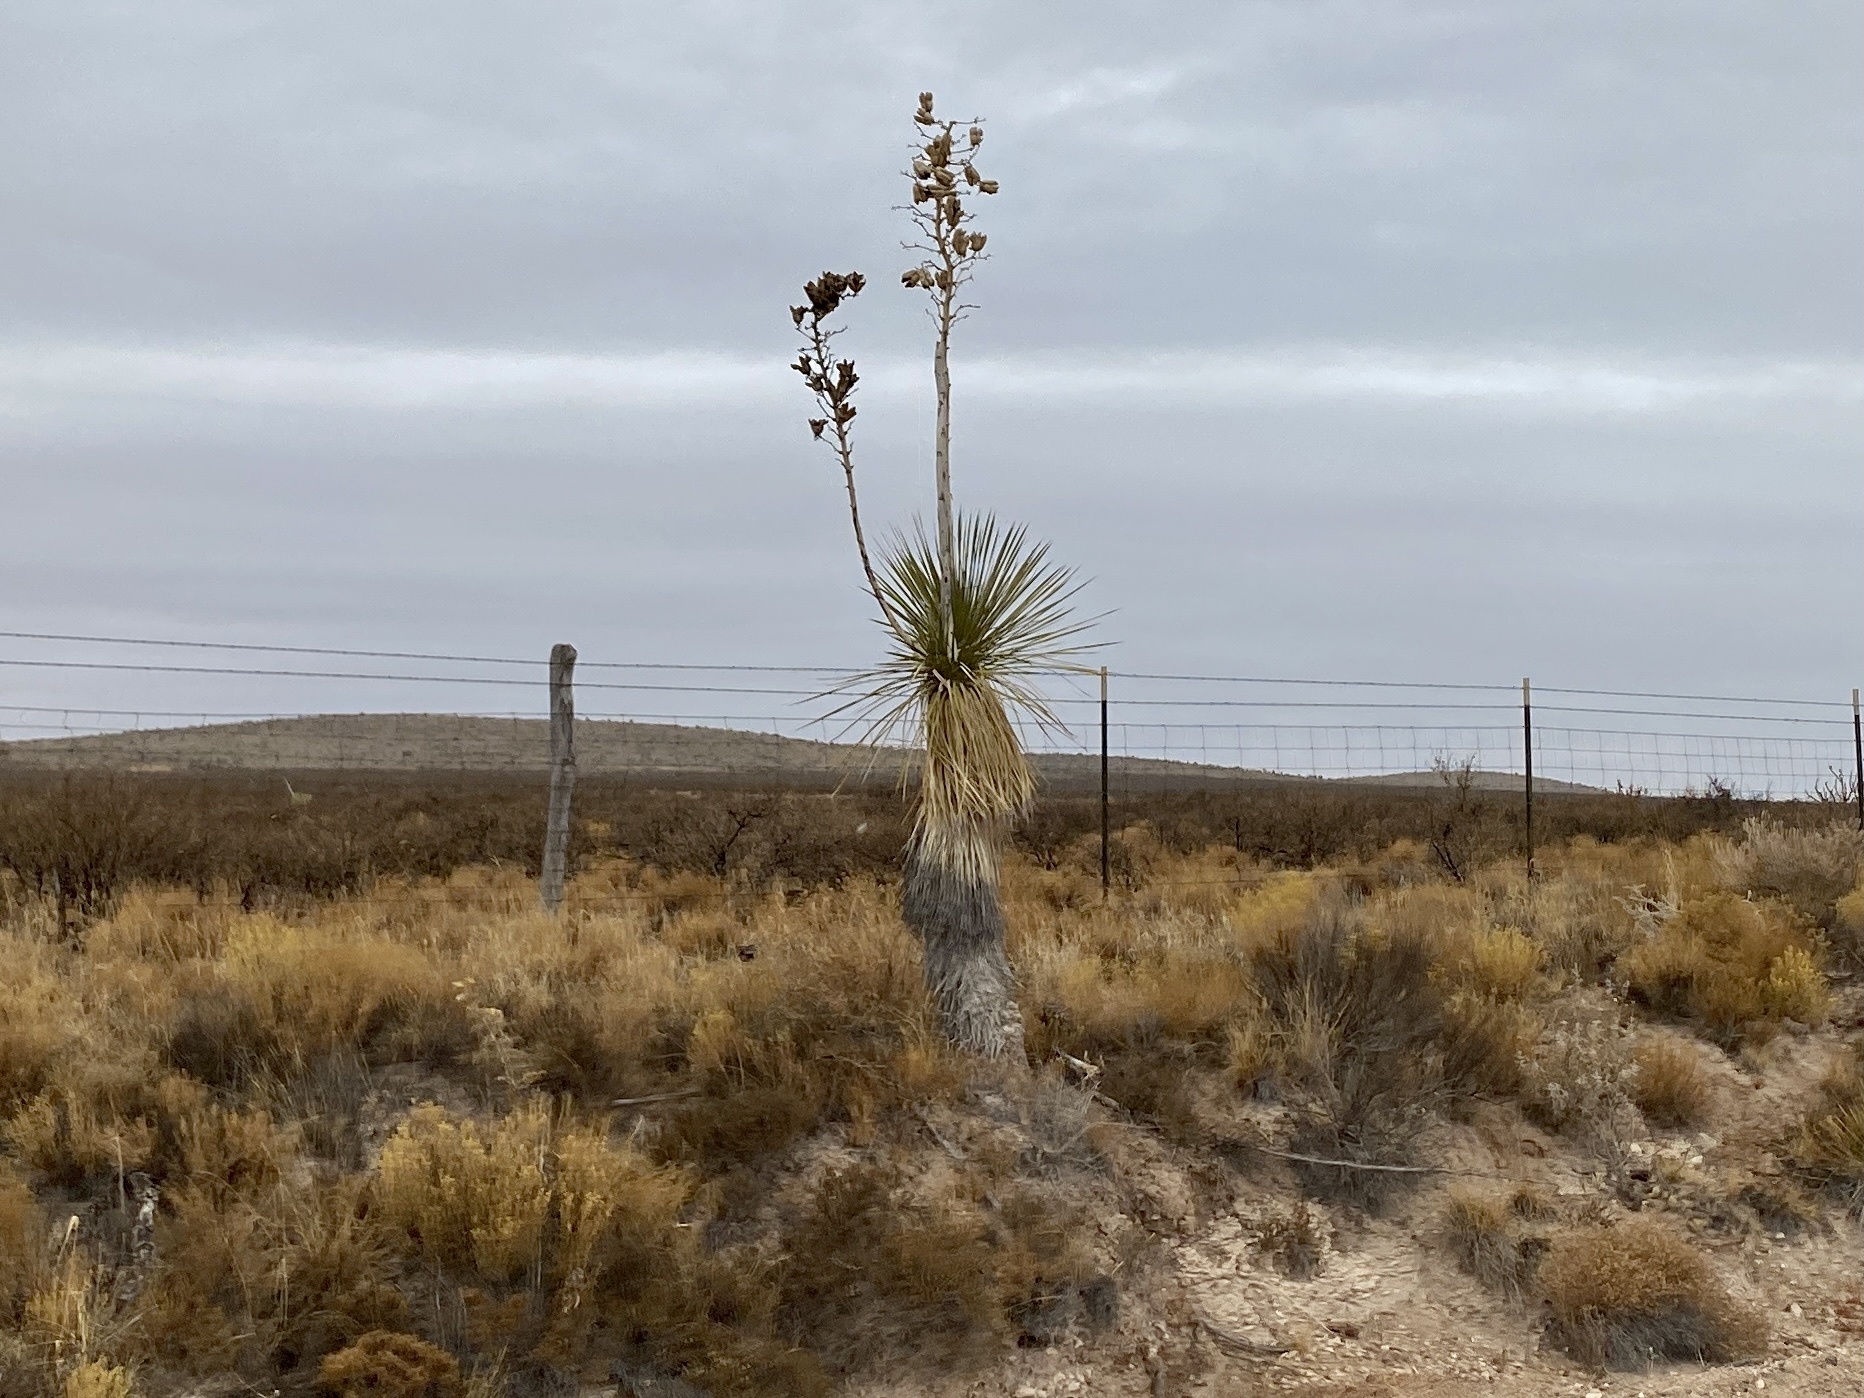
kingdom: Plantae
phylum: Tracheophyta
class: Liliopsida
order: Asparagales
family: Asparagaceae
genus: Yucca
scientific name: Yucca elata
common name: Palmella
